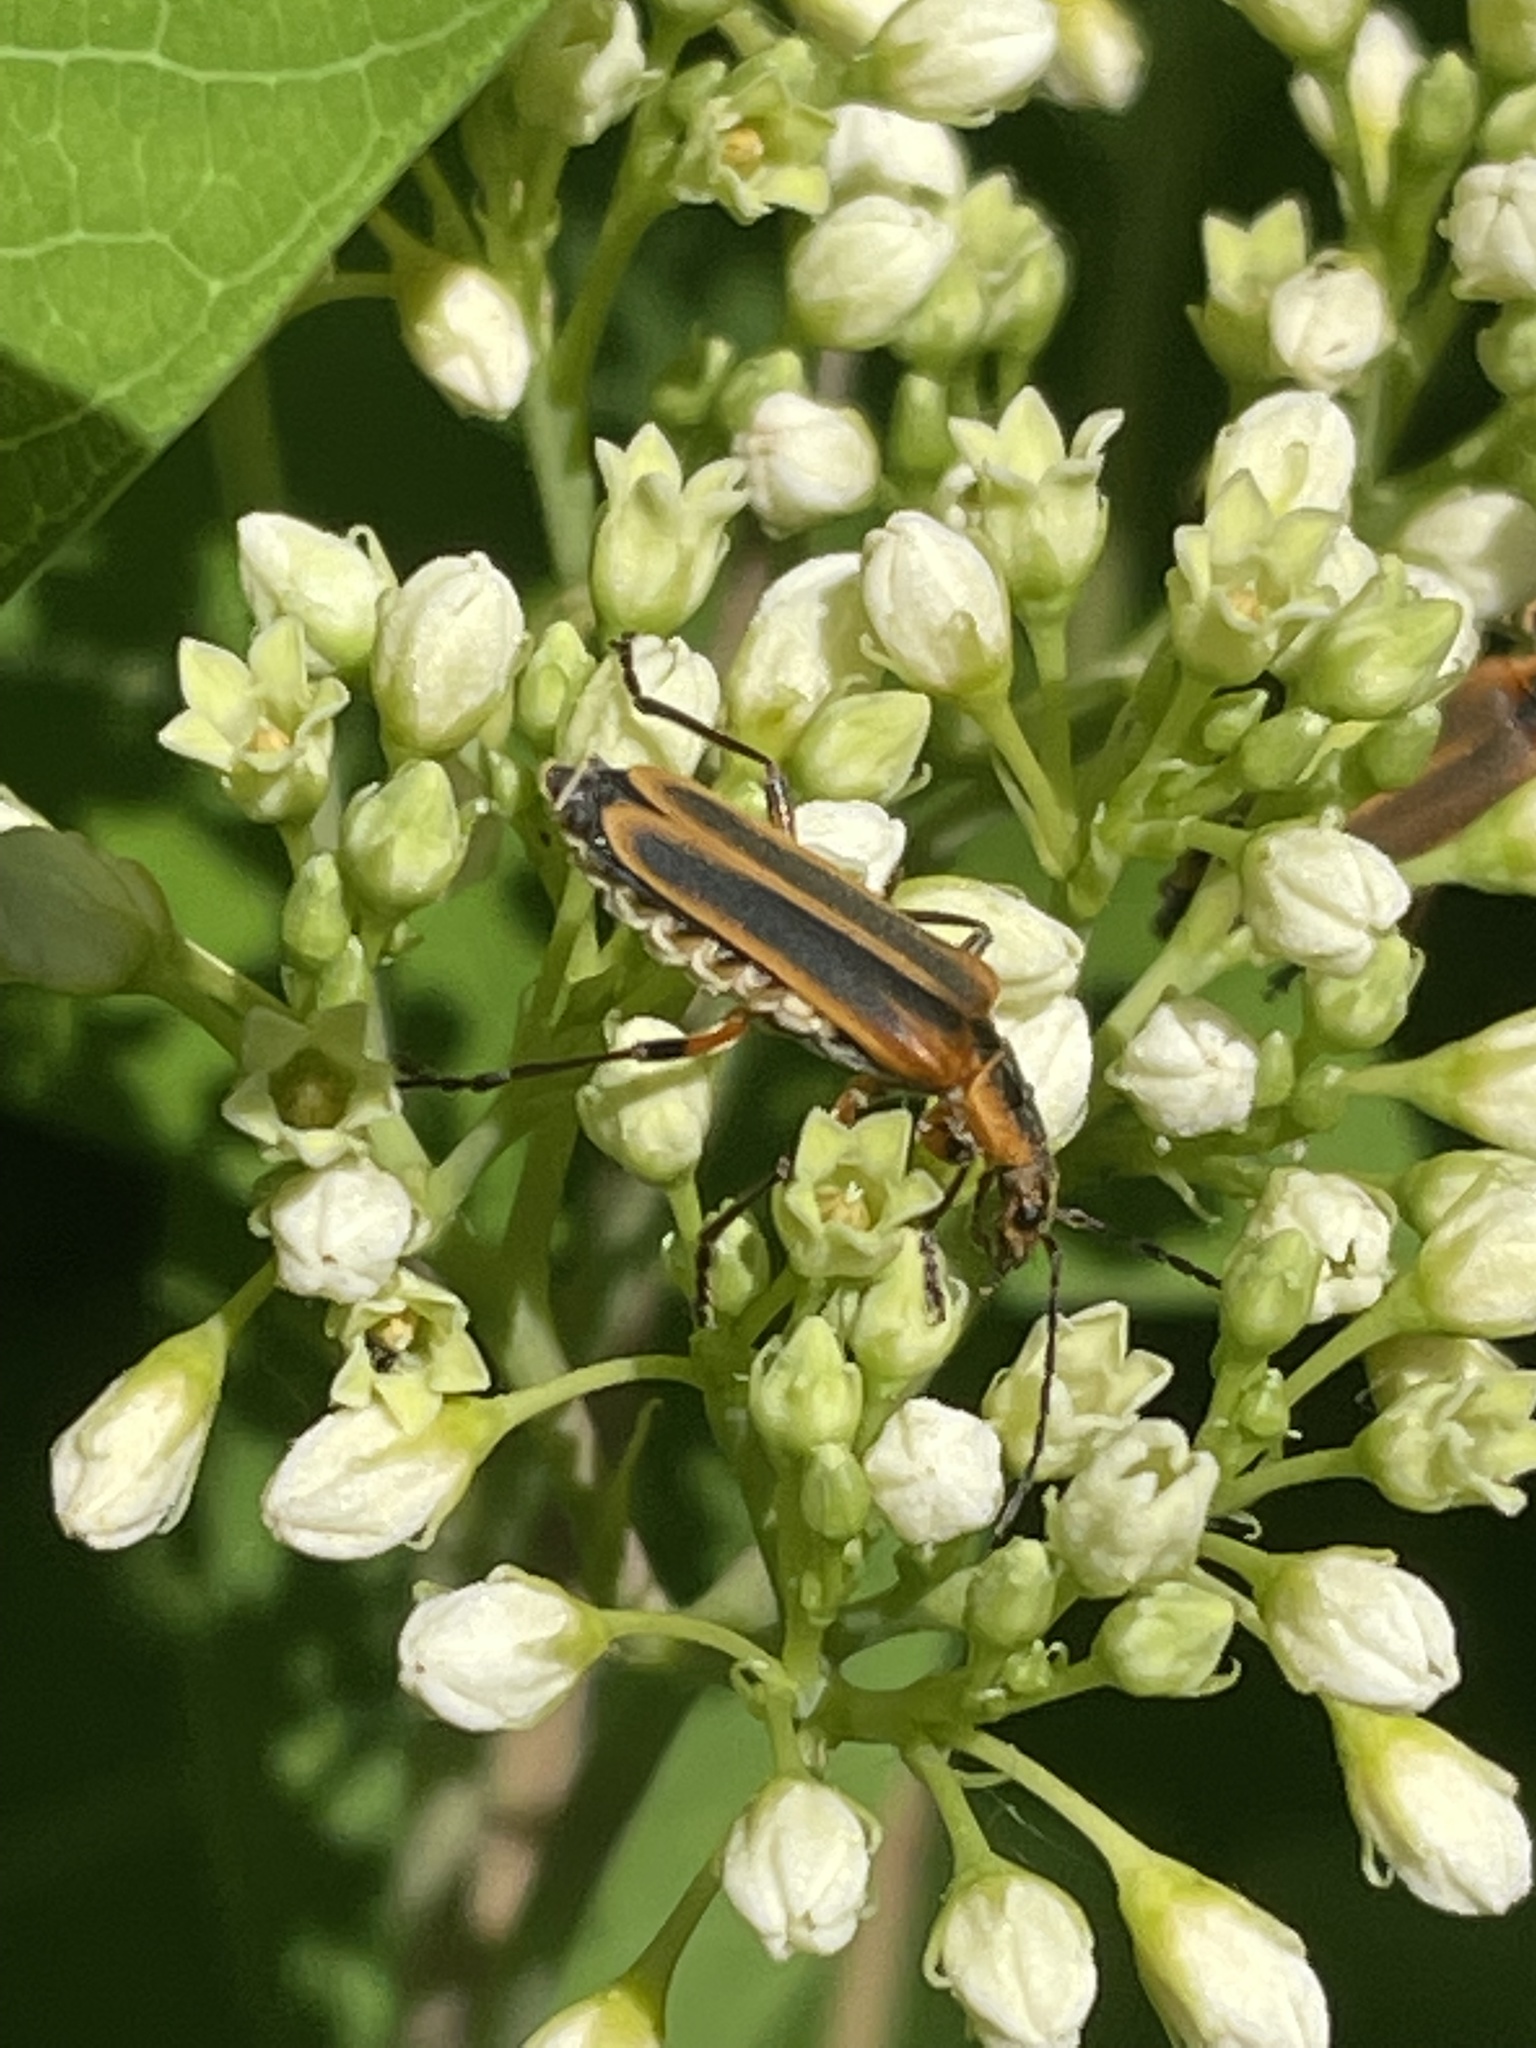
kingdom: Animalia
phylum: Arthropoda
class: Insecta
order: Coleoptera
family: Cantharidae
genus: Chauliognathus
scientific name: Chauliognathus marginatus
